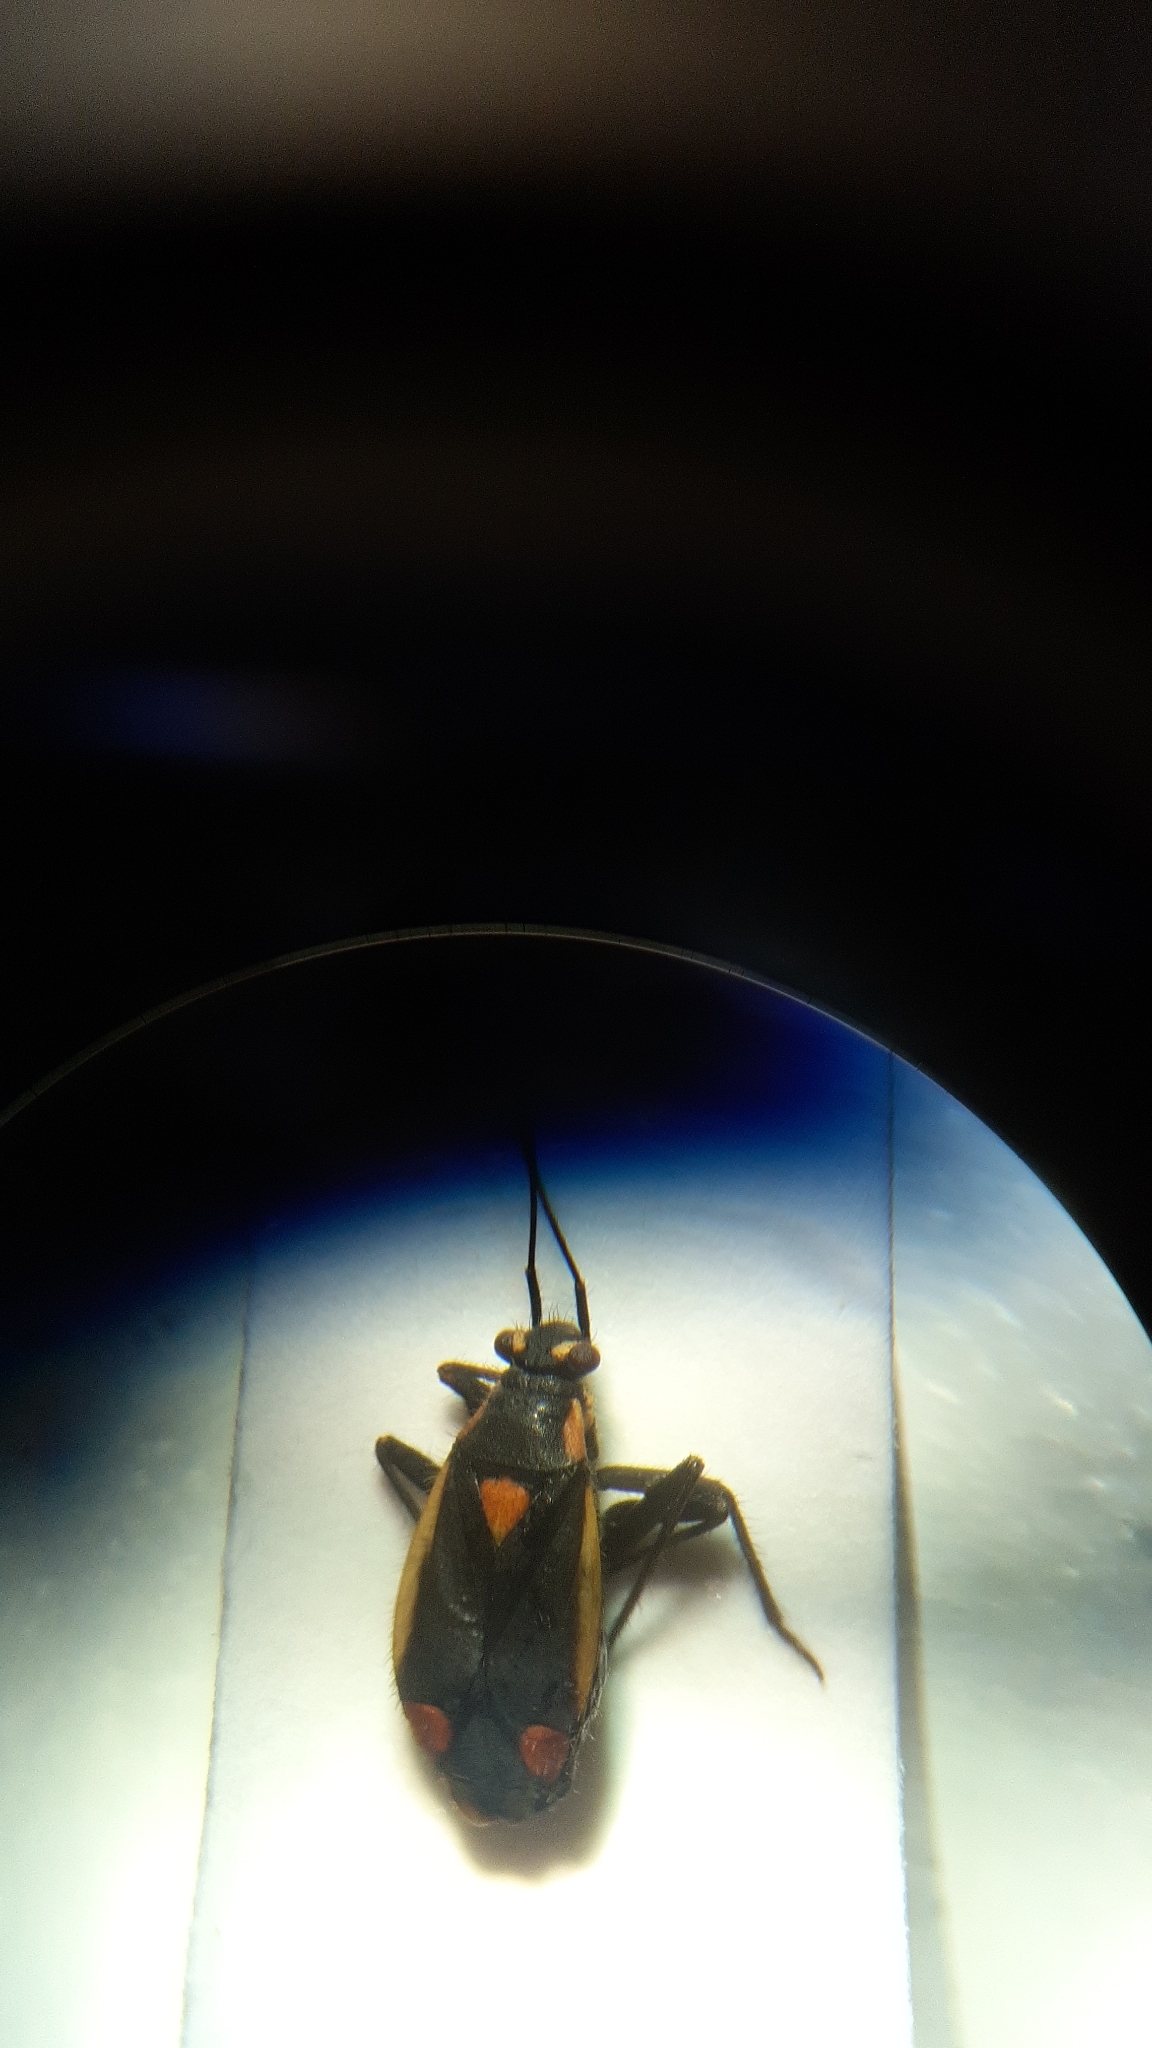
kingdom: Animalia
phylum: Arthropoda
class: Insecta
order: Hemiptera
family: Miridae
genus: Capsodes
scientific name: Capsodes gothicus
